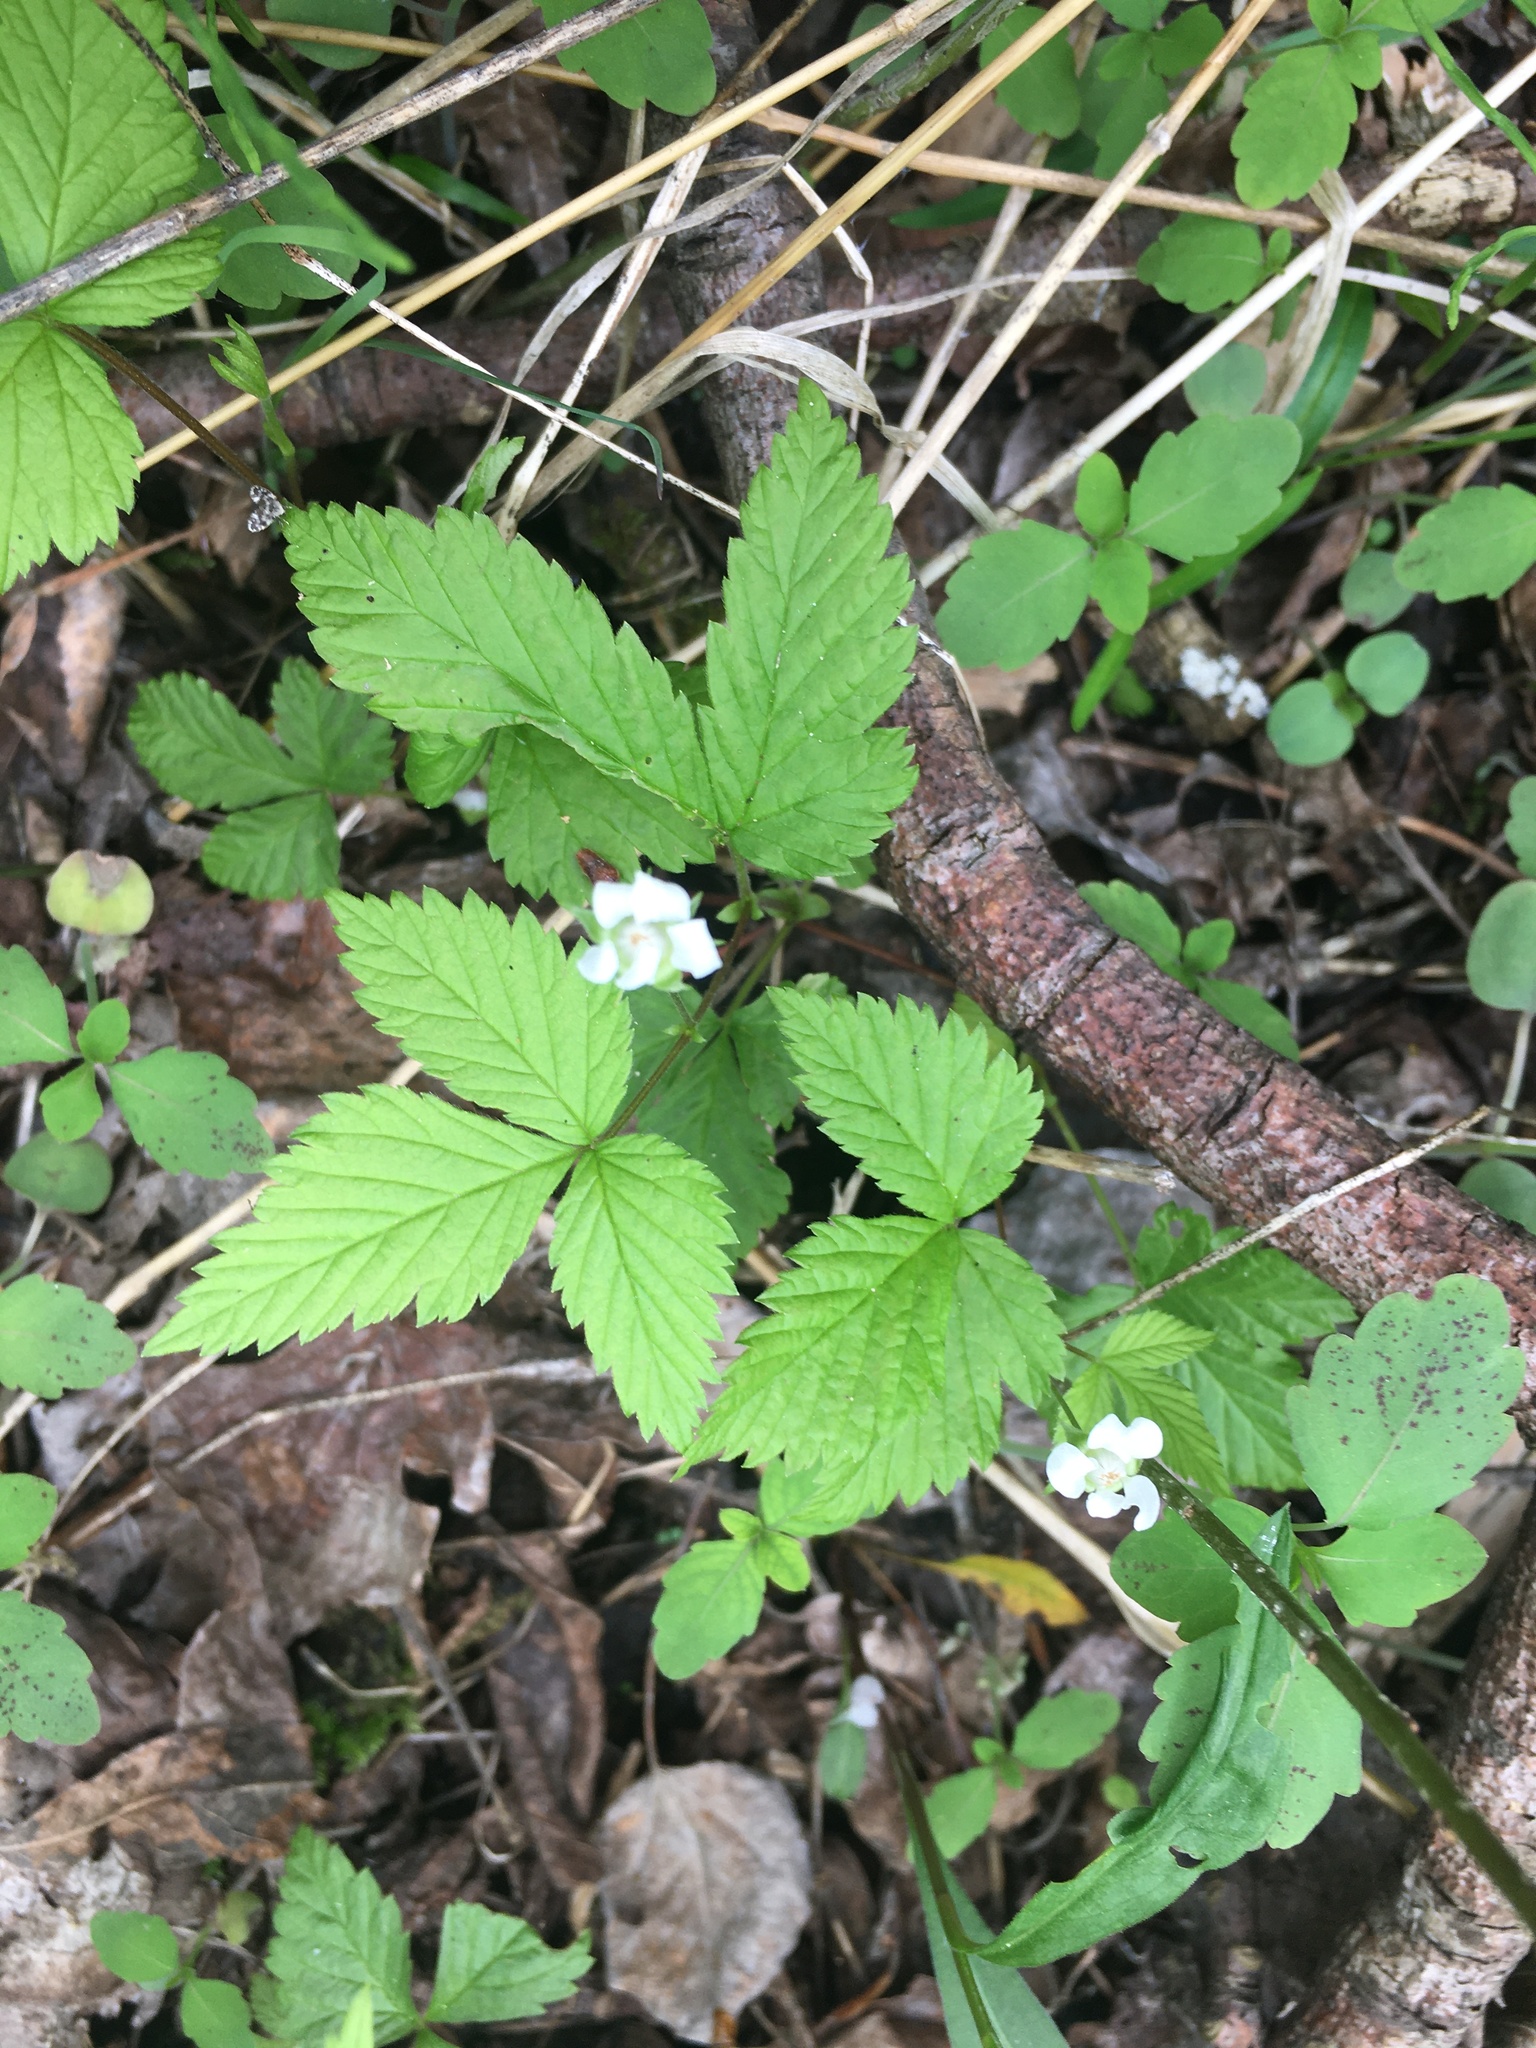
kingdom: Plantae
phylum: Tracheophyta
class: Magnoliopsida
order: Rosales
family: Rosaceae
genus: Rubus
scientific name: Rubus pubescens
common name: Dwarf raspberry
